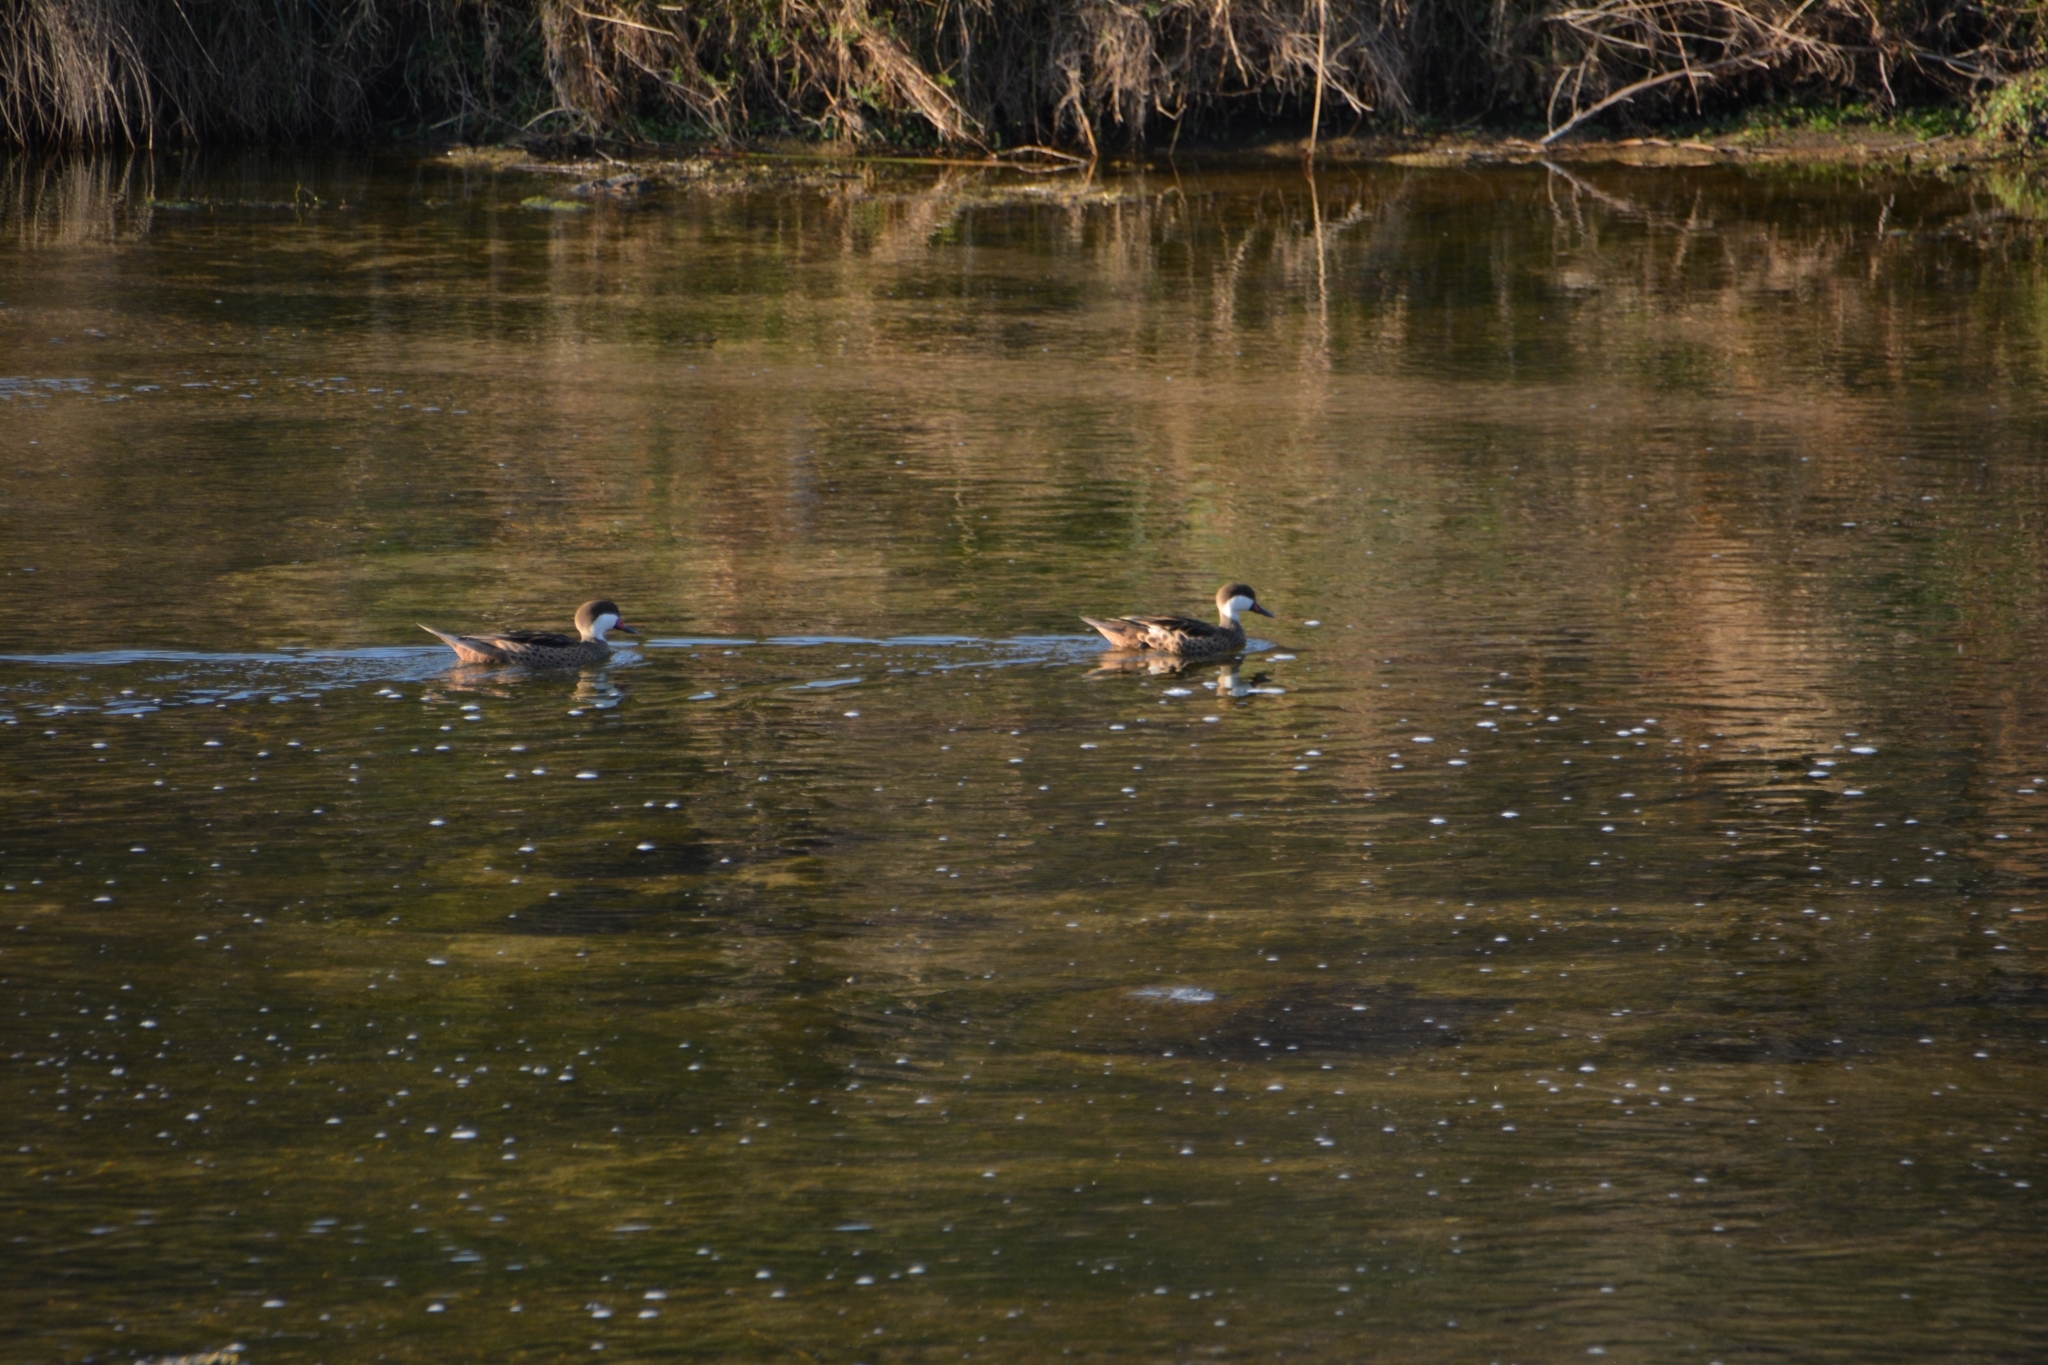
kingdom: Animalia
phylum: Chordata
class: Aves
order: Anseriformes
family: Anatidae
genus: Anas
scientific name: Anas bahamensis
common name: White-cheeked pintail
